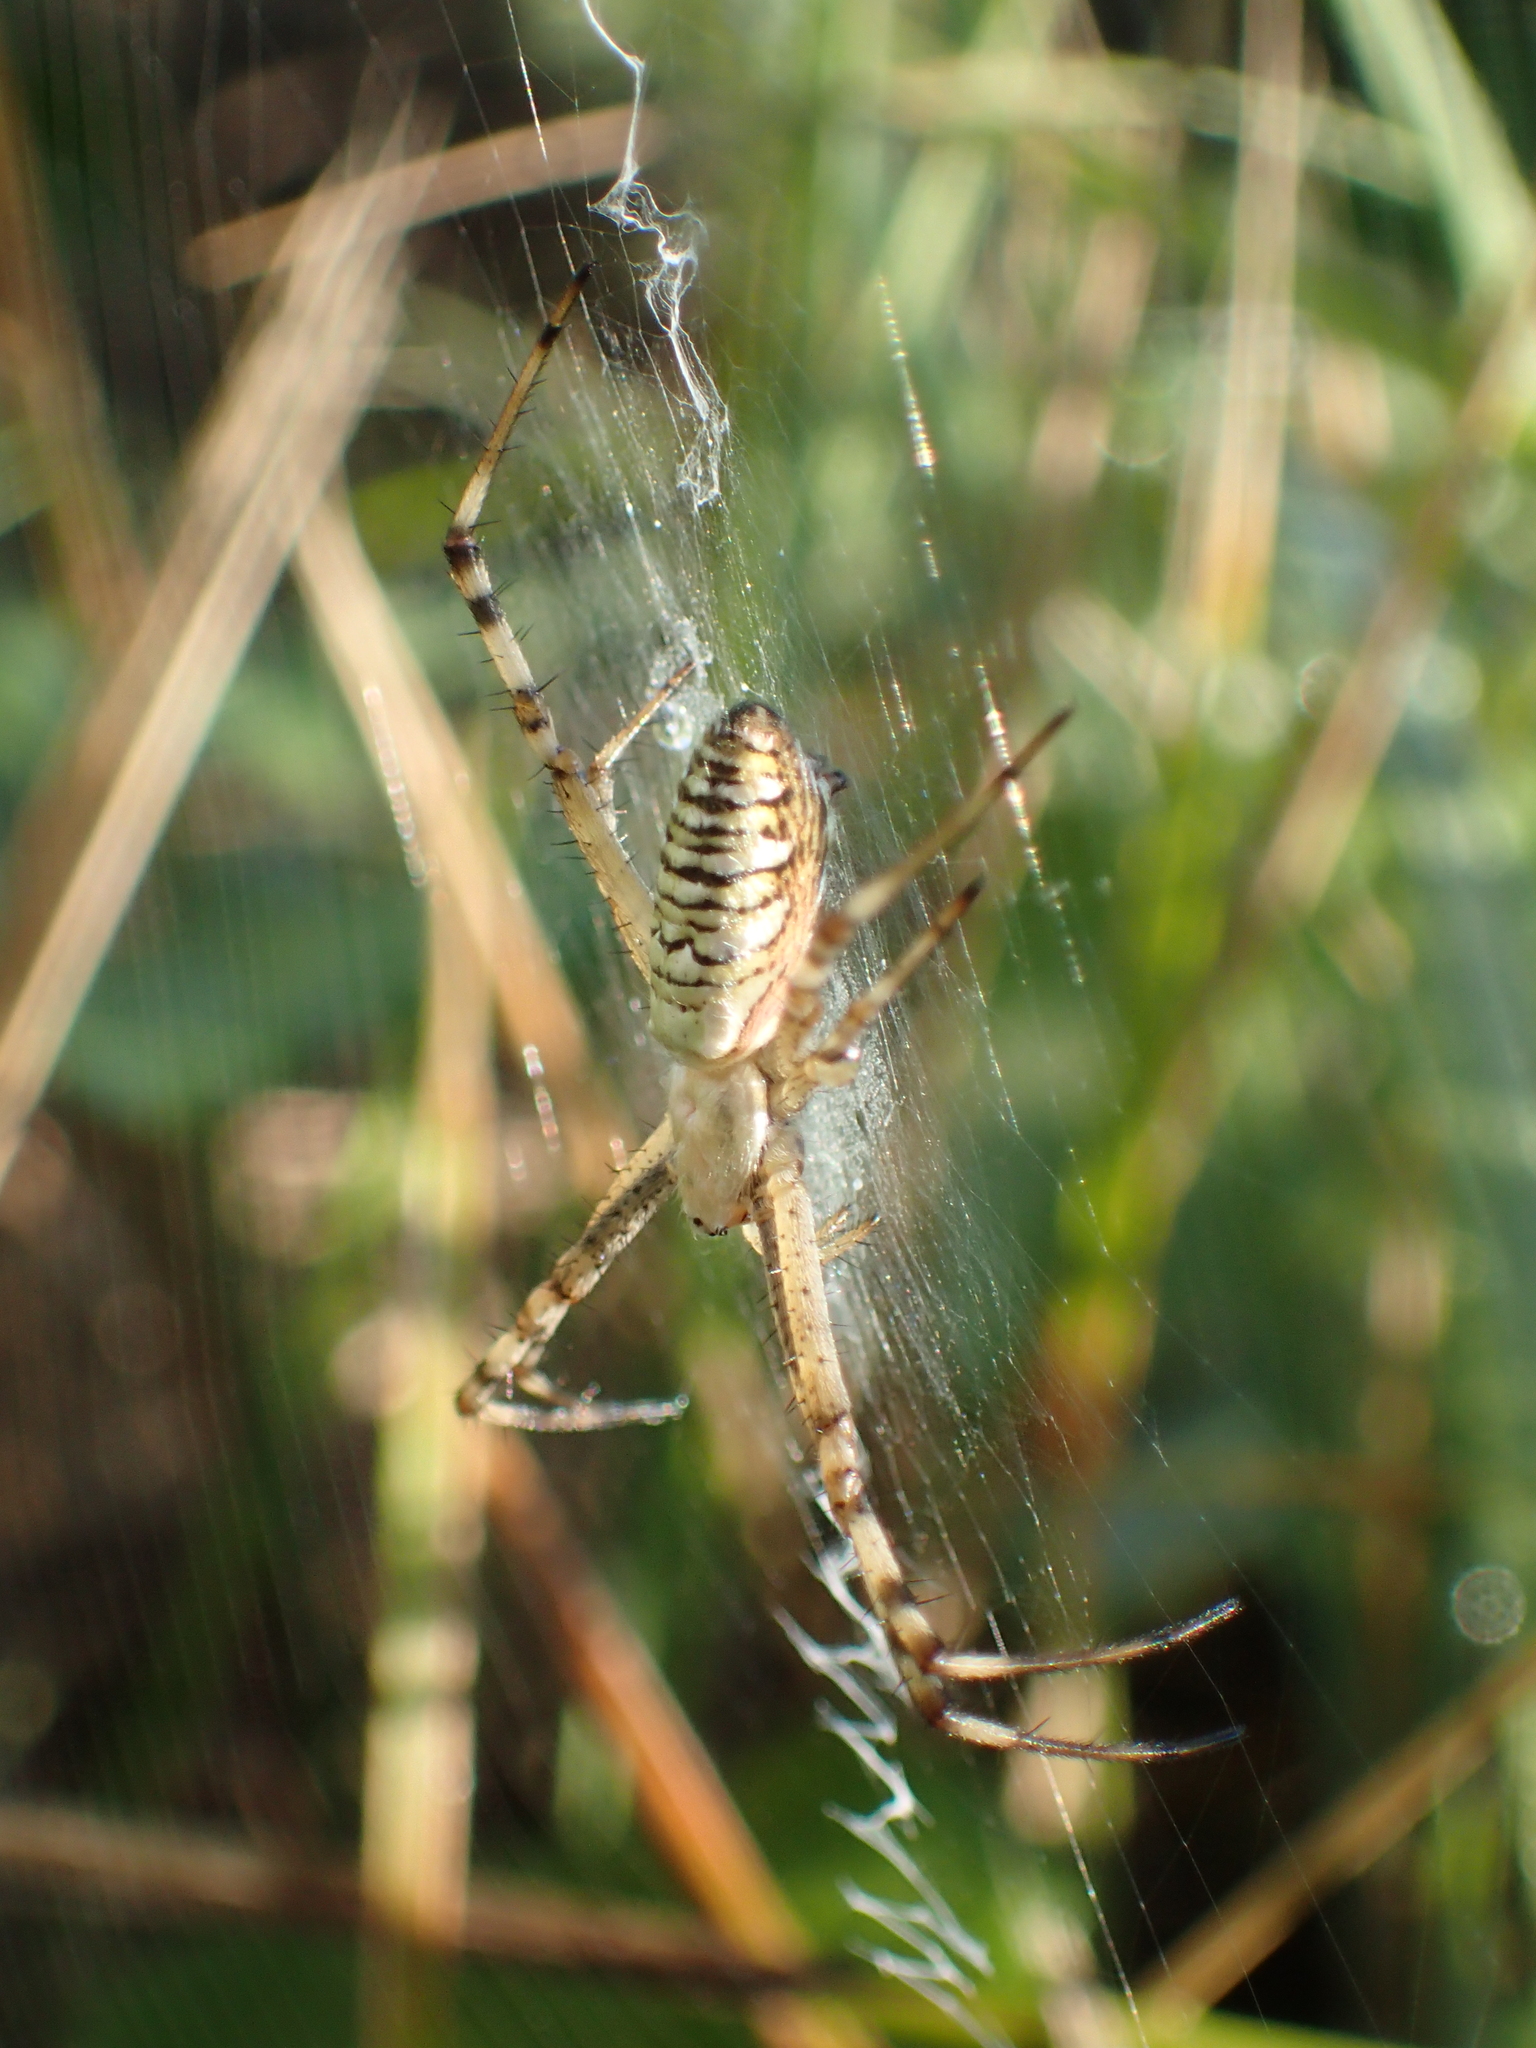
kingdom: Animalia
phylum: Arthropoda
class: Arachnida
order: Araneae
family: Araneidae
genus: Argiope
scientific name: Argiope bruennichi
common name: Wasp spider
